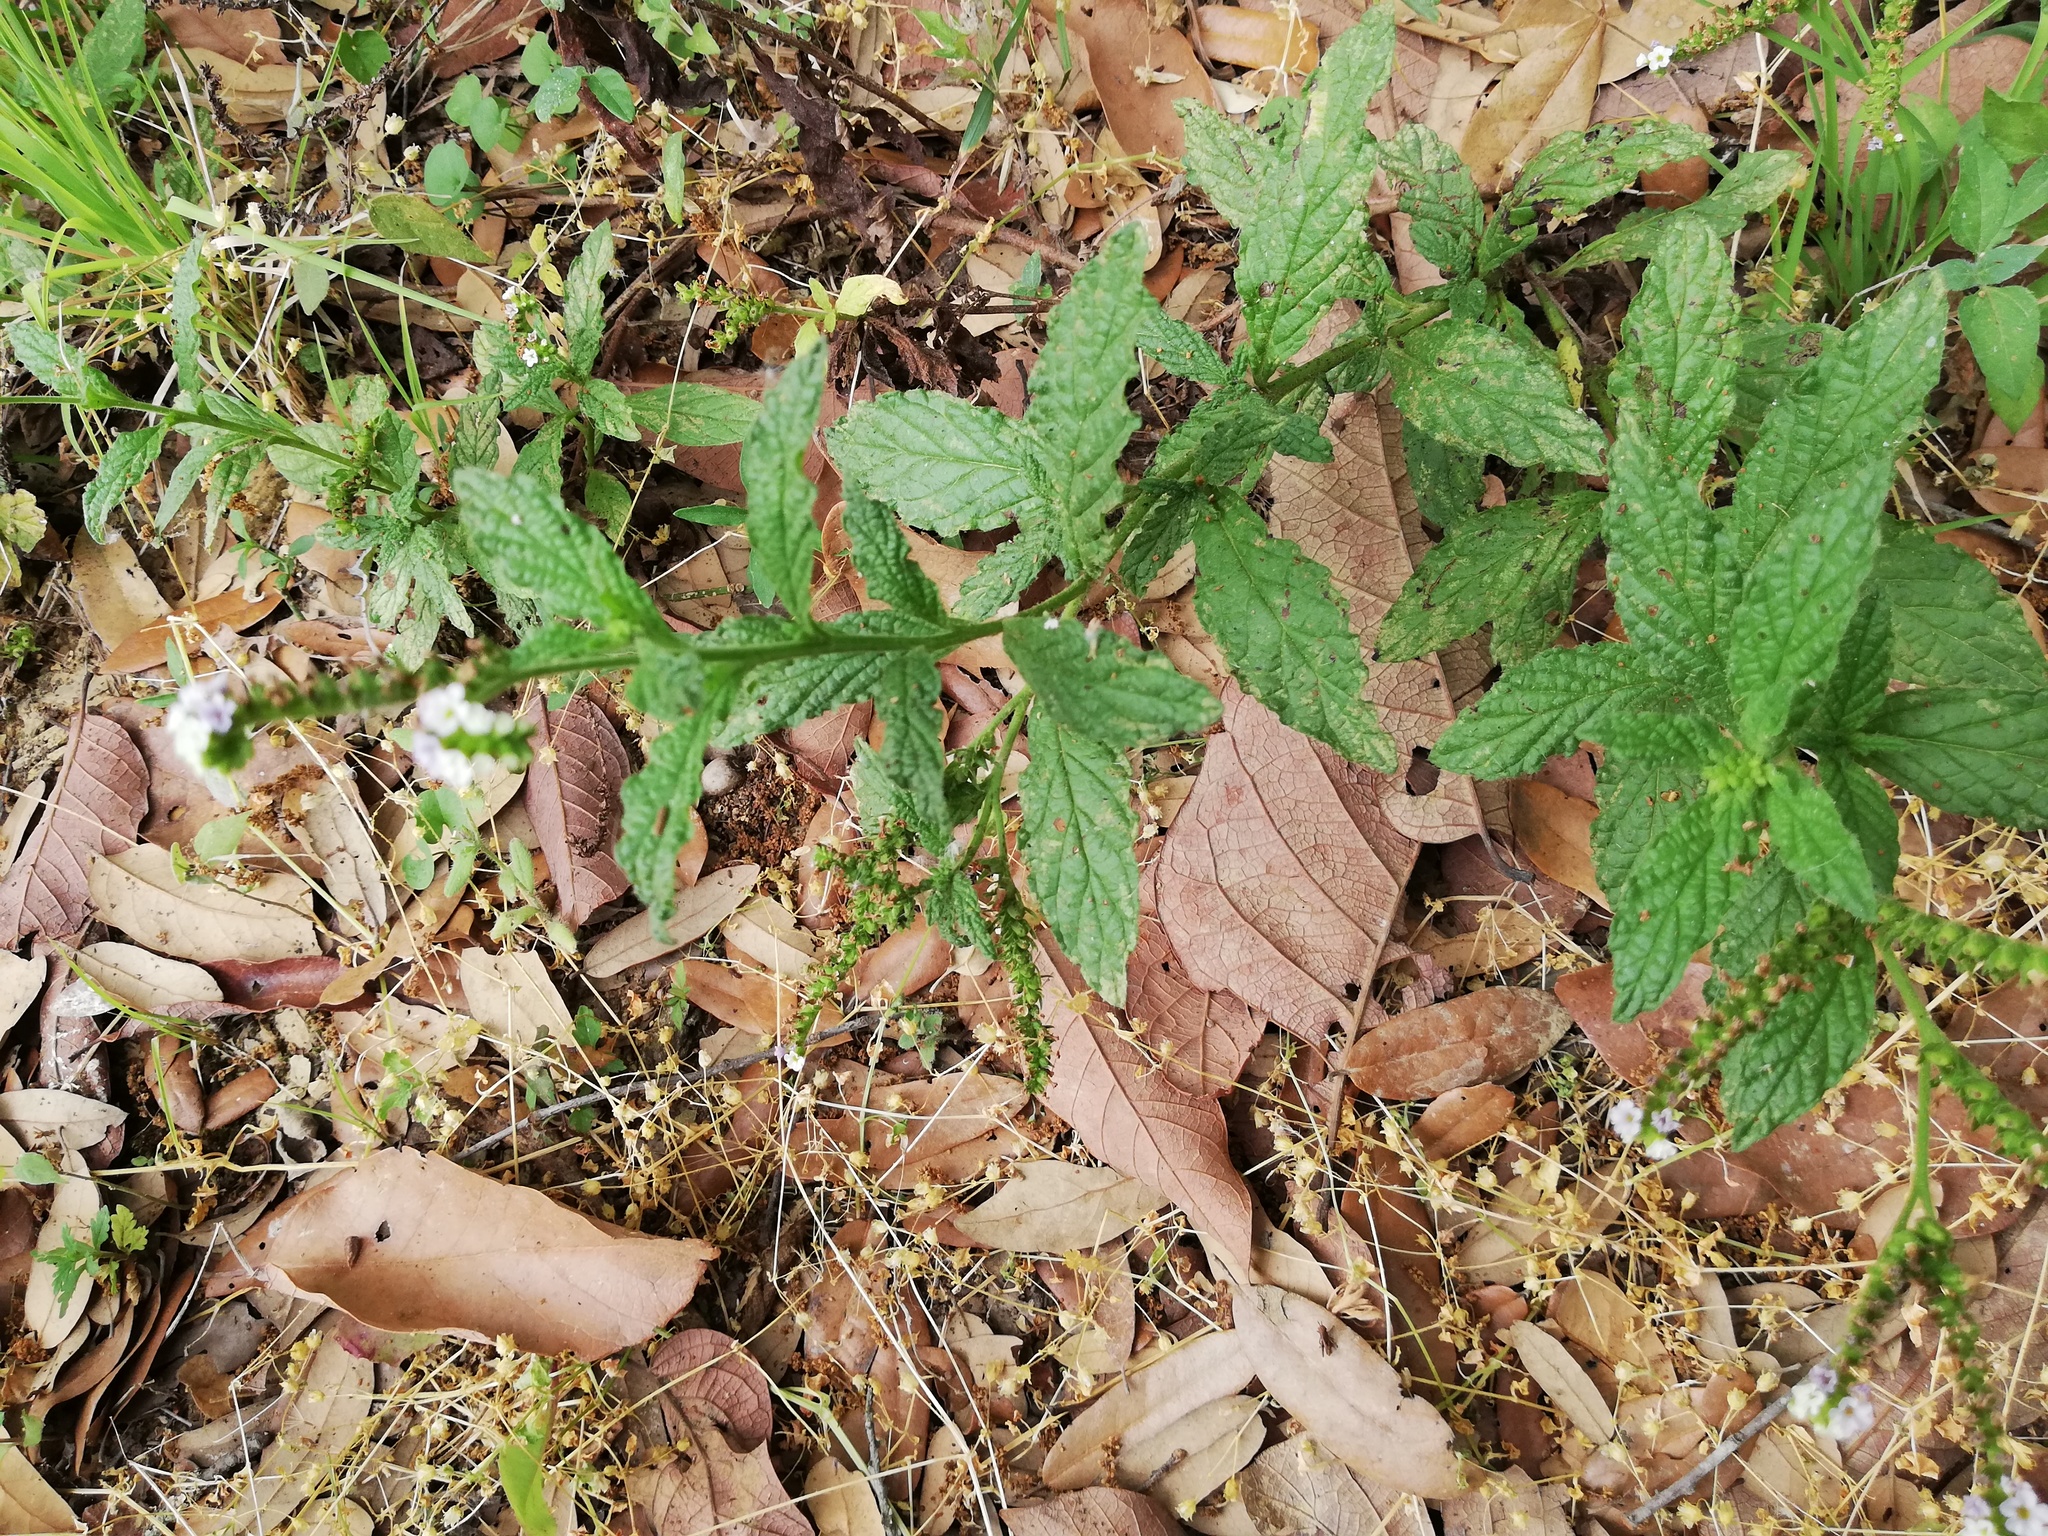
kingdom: Plantae
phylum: Tracheophyta
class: Magnoliopsida
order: Boraginales
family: Heliotropiaceae
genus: Heliotropium
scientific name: Heliotropium angiospermum
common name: Eye bright
